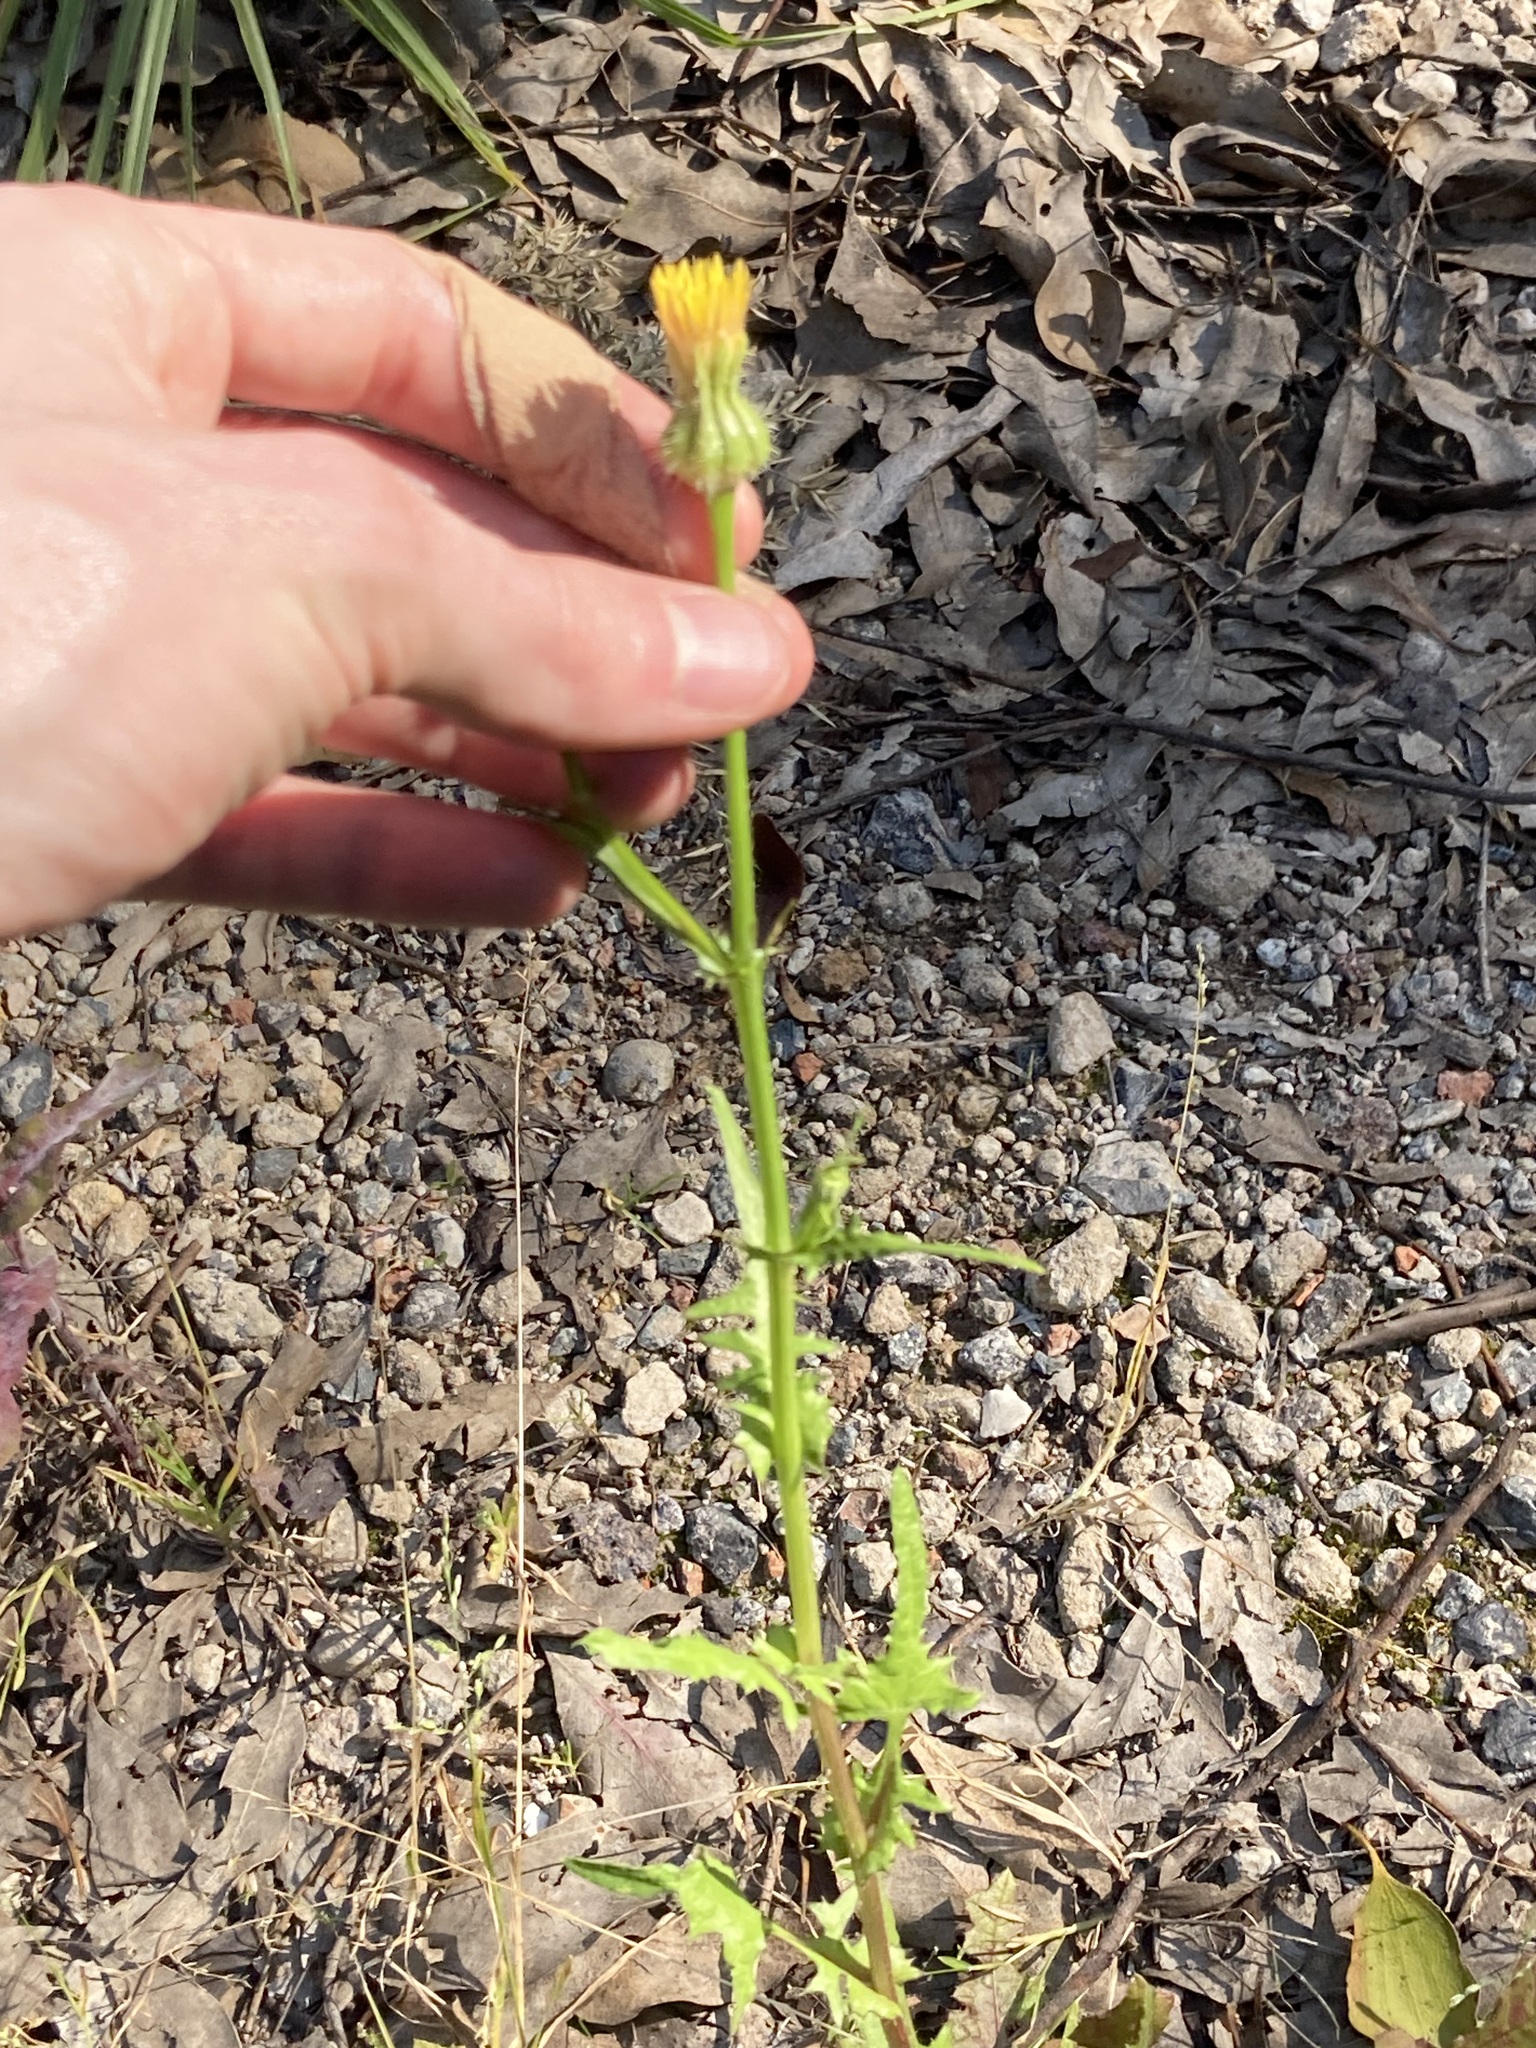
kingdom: Plantae
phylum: Tracheophyta
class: Magnoliopsida
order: Asterales
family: Asteraceae
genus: Urospermum
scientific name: Urospermum picroides
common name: False hawkbit
